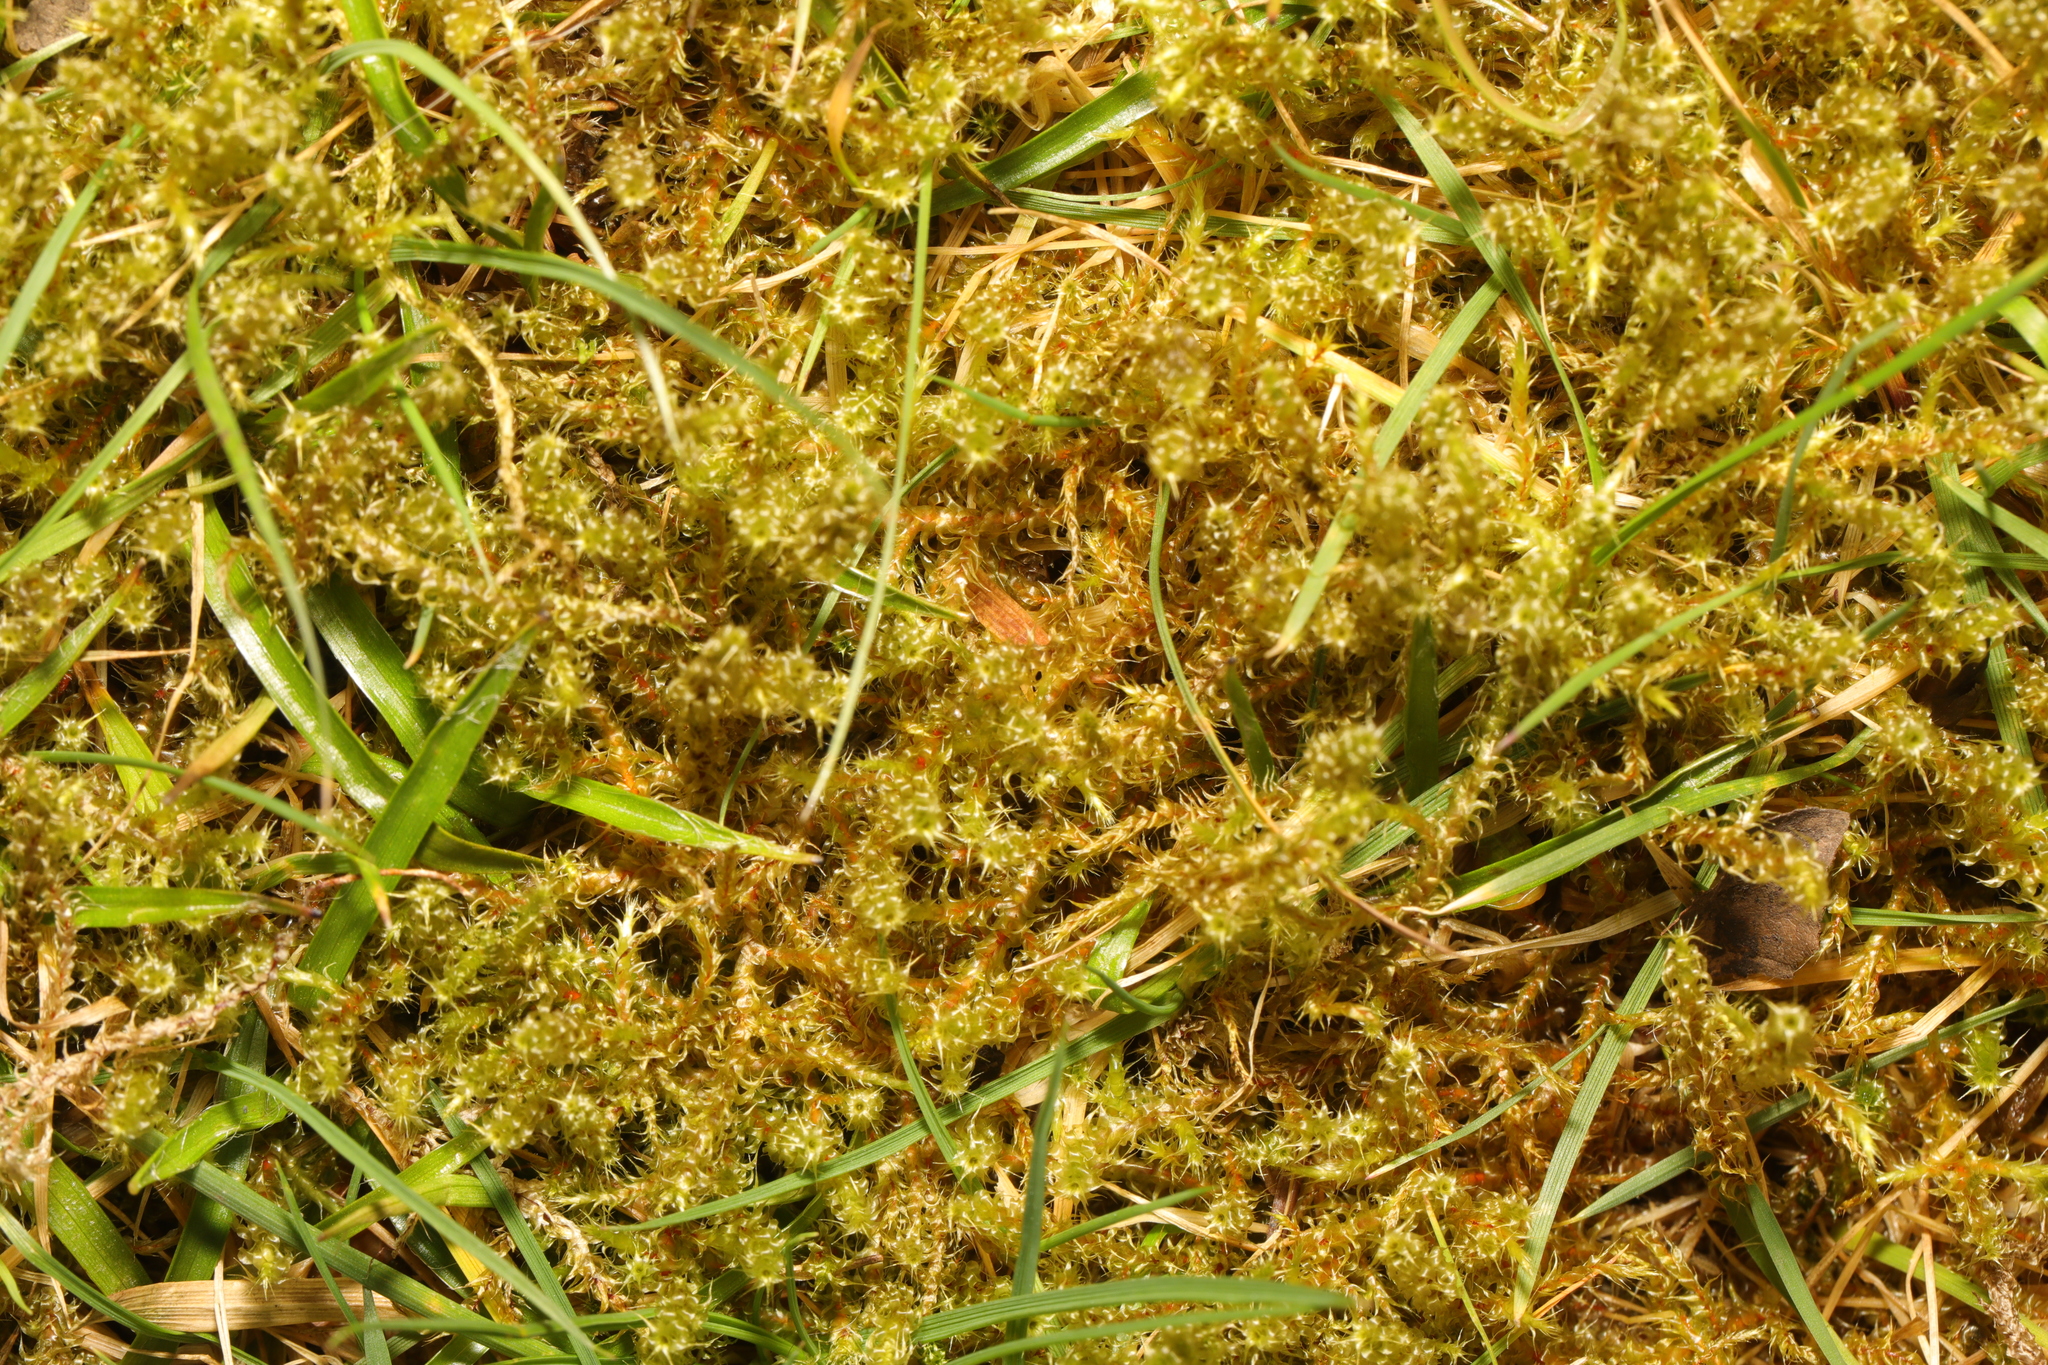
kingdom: Plantae
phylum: Bryophyta
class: Bryopsida
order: Hypnales
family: Hylocomiaceae
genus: Rhytidiadelphus
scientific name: Rhytidiadelphus squarrosus
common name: Springy turf-moss
